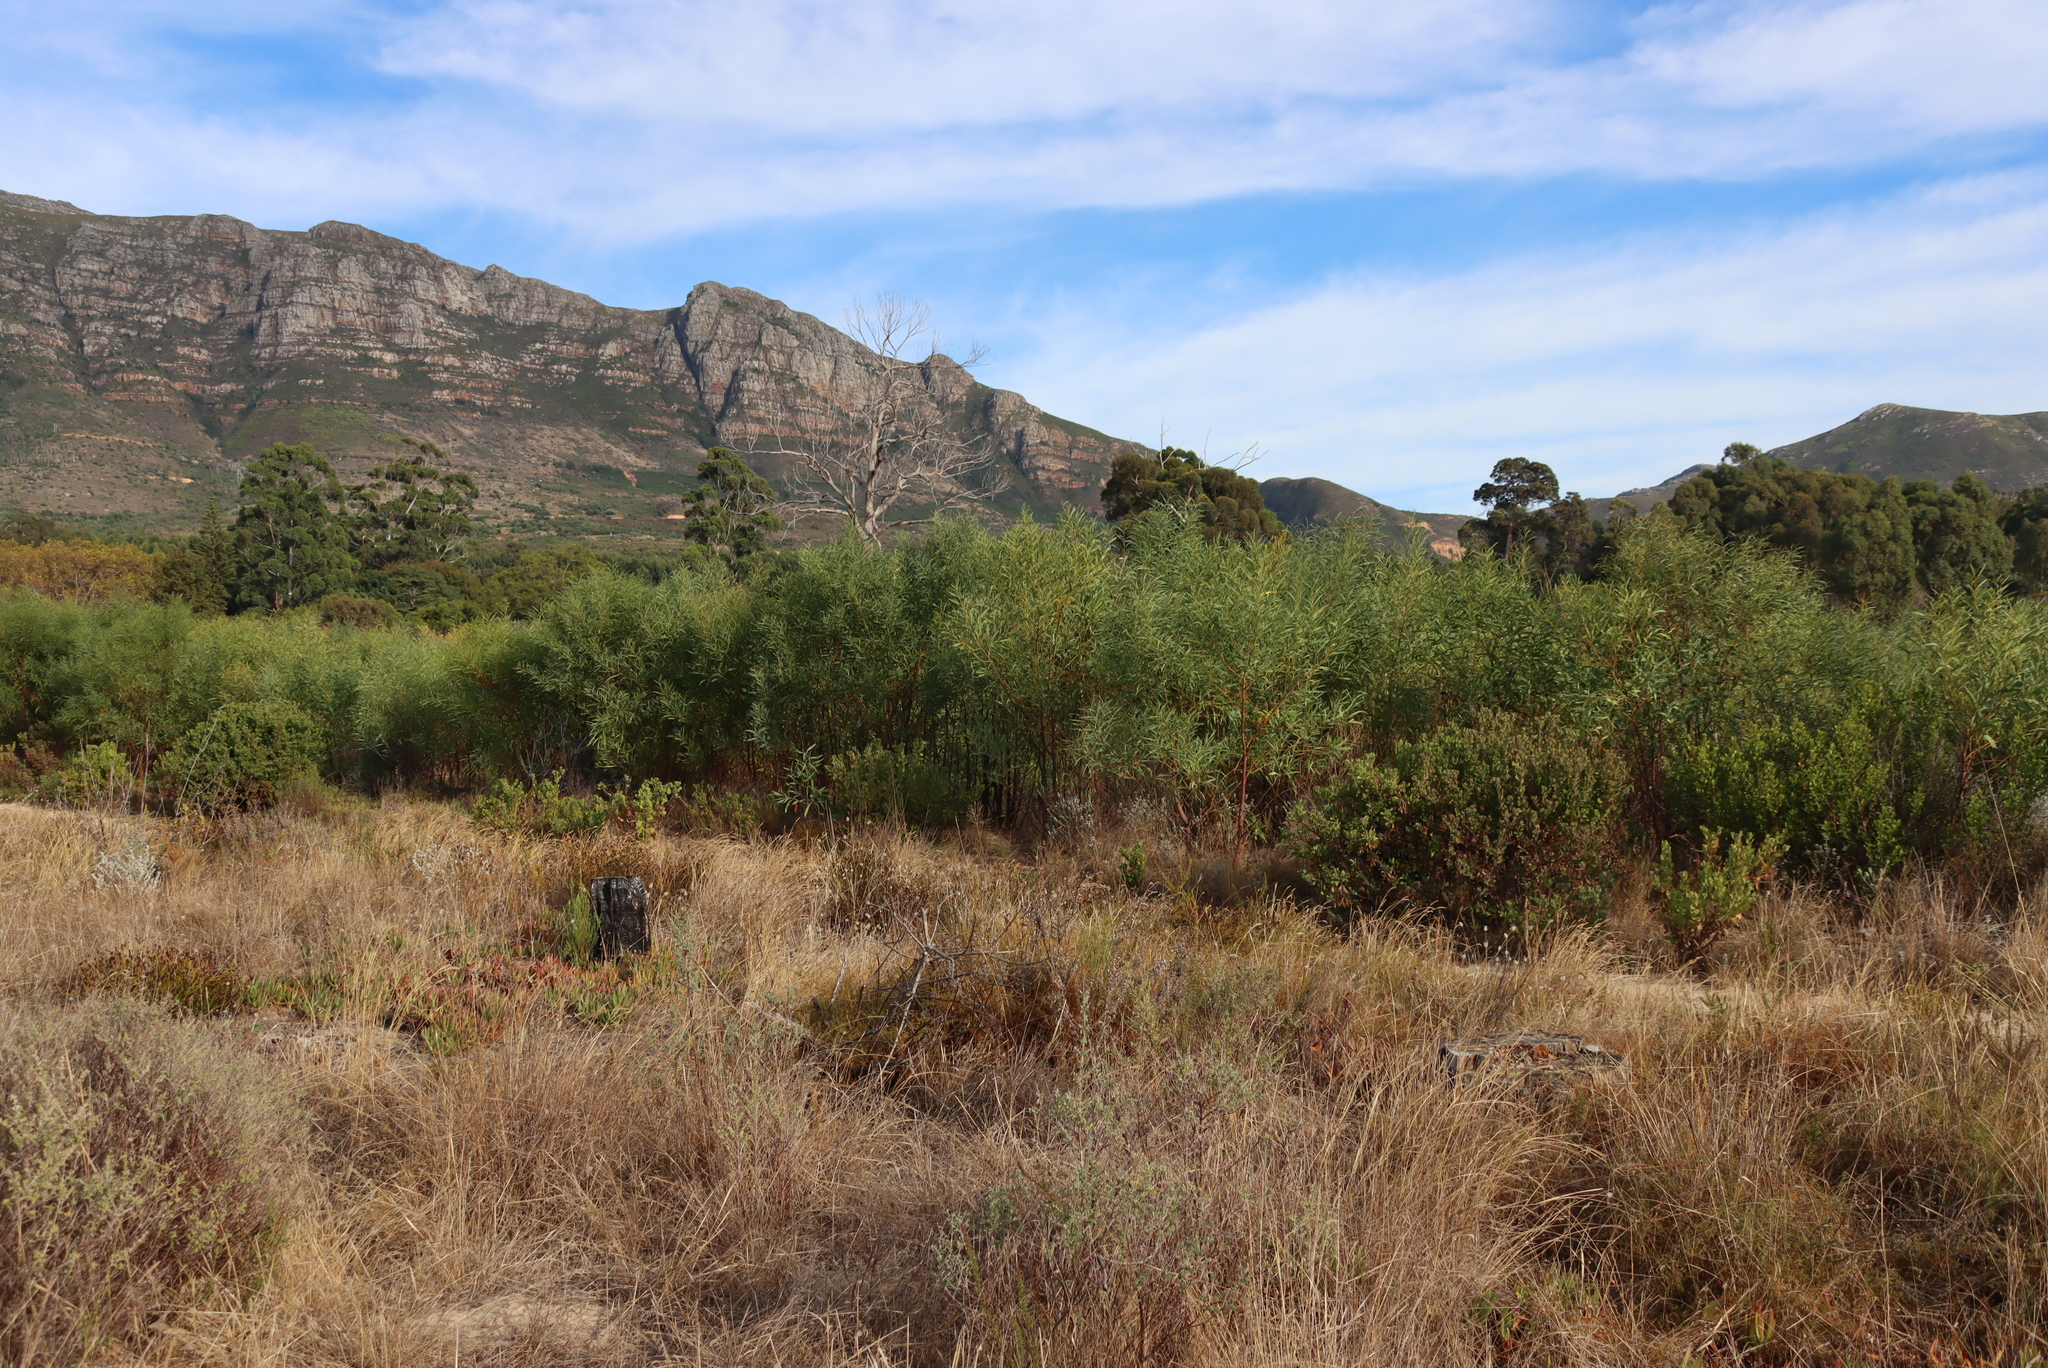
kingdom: Plantae
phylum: Tracheophyta
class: Magnoliopsida
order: Fabales
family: Fabaceae
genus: Acacia
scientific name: Acacia saligna
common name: Orange wattle
